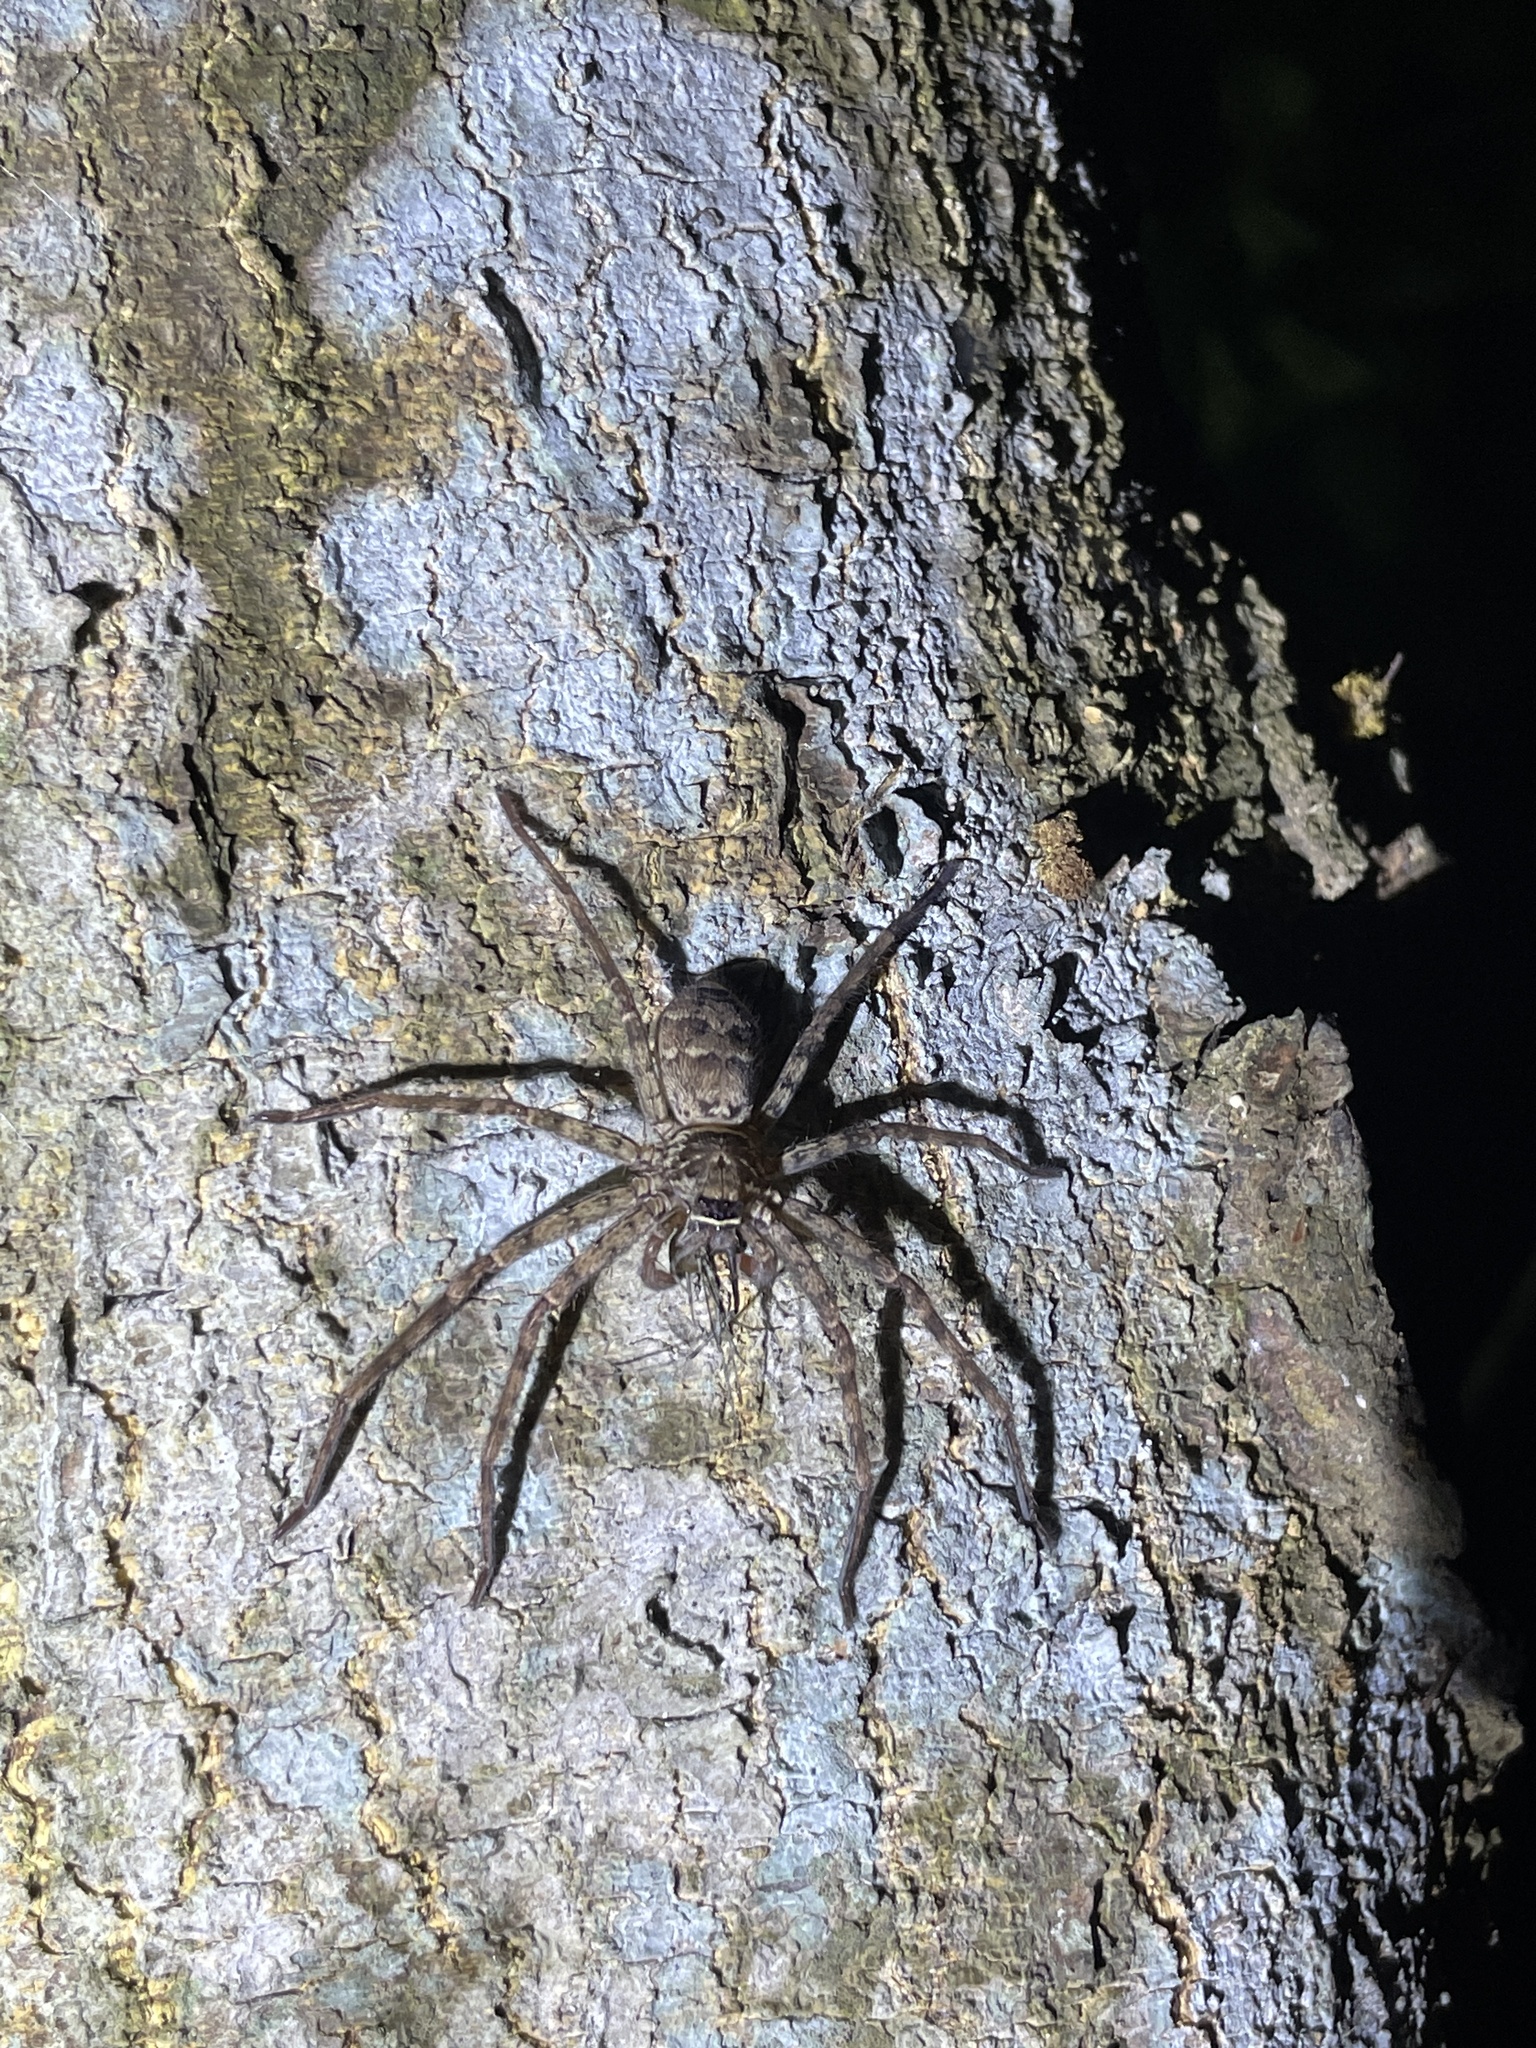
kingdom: Animalia
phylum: Arthropoda
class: Arachnida
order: Araneae
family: Sparassidae
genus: Heteropoda
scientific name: Heteropoda venatoria
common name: Huntsman spider
